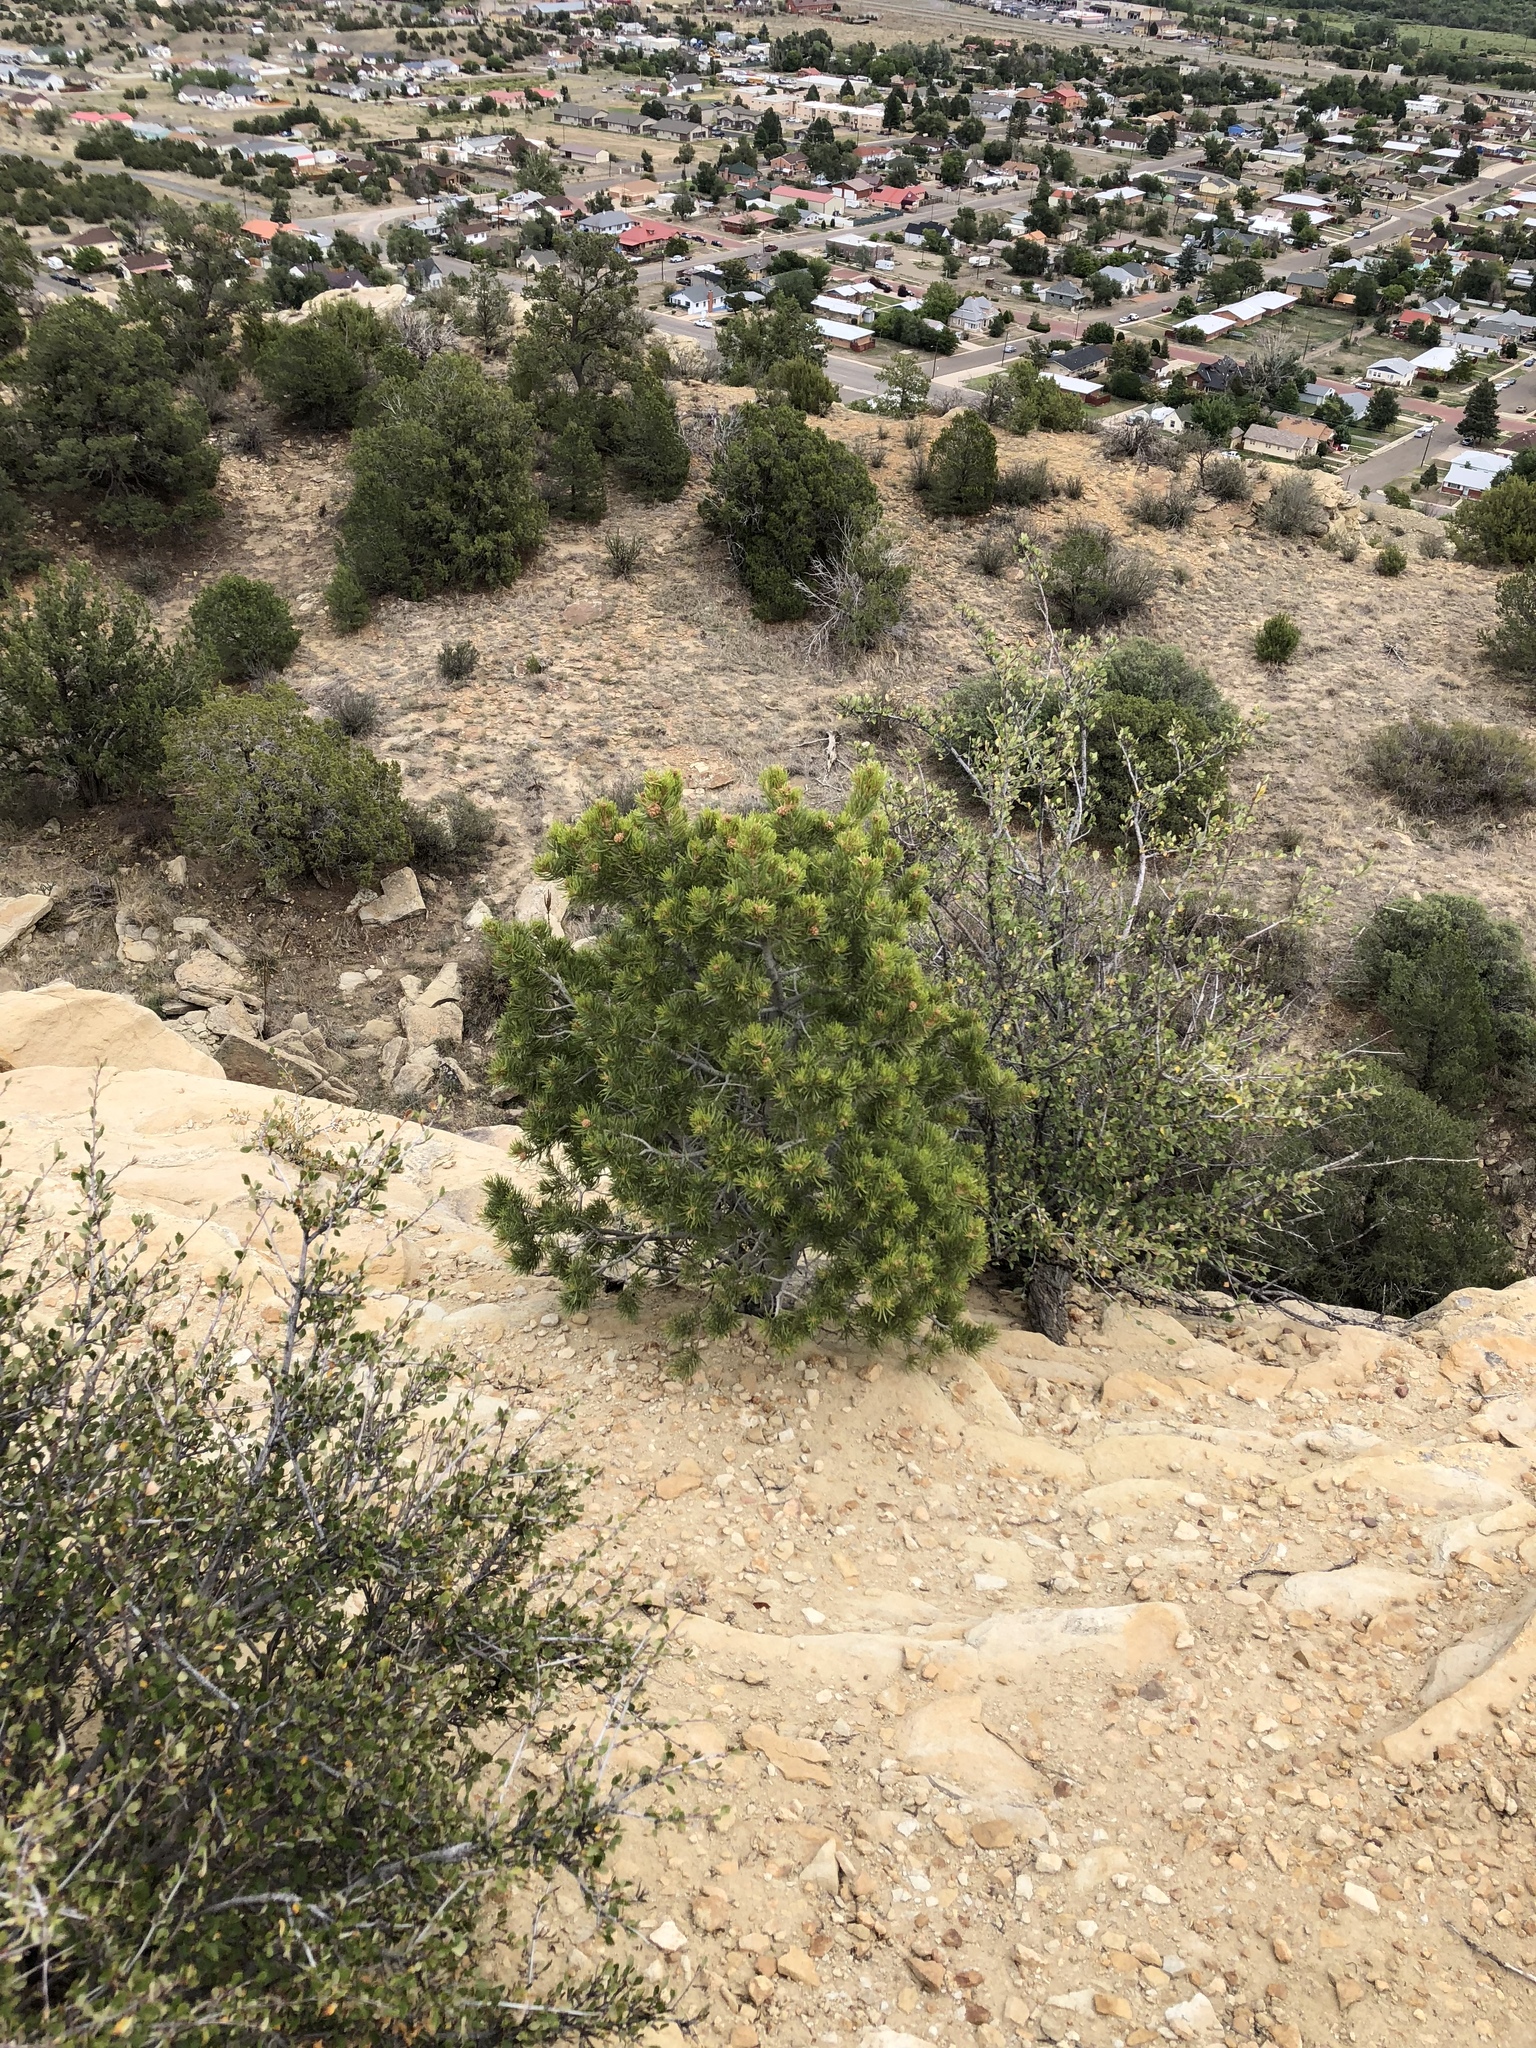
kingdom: Plantae
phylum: Tracheophyta
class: Pinopsida
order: Pinales
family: Pinaceae
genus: Pinus
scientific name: Pinus edulis
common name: Colorado pinyon
